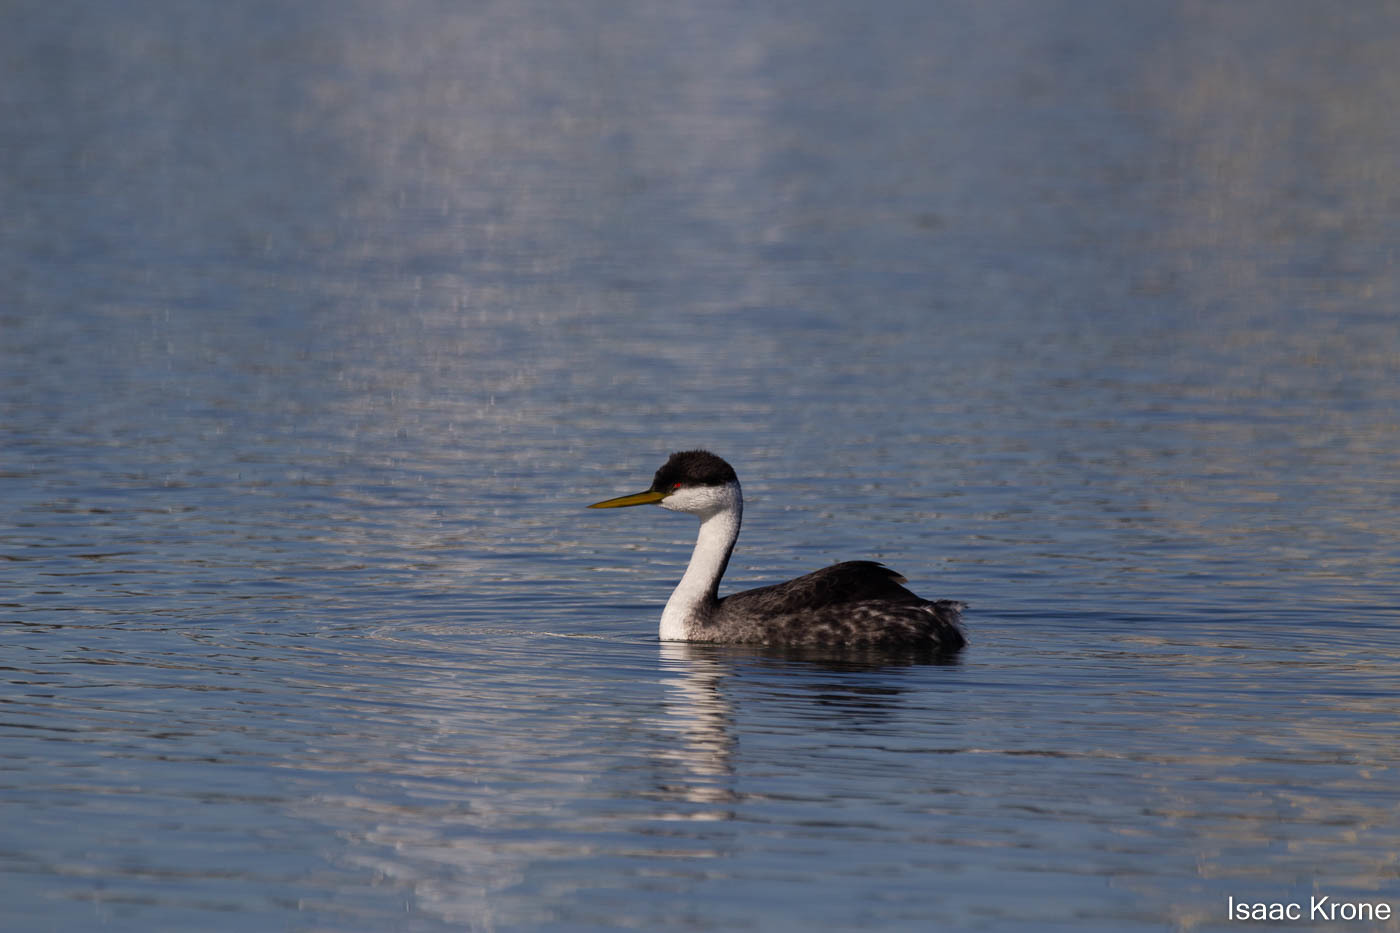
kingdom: Animalia
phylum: Chordata
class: Aves
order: Podicipediformes
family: Podicipedidae
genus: Aechmophorus
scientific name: Aechmophorus occidentalis
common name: Western grebe
